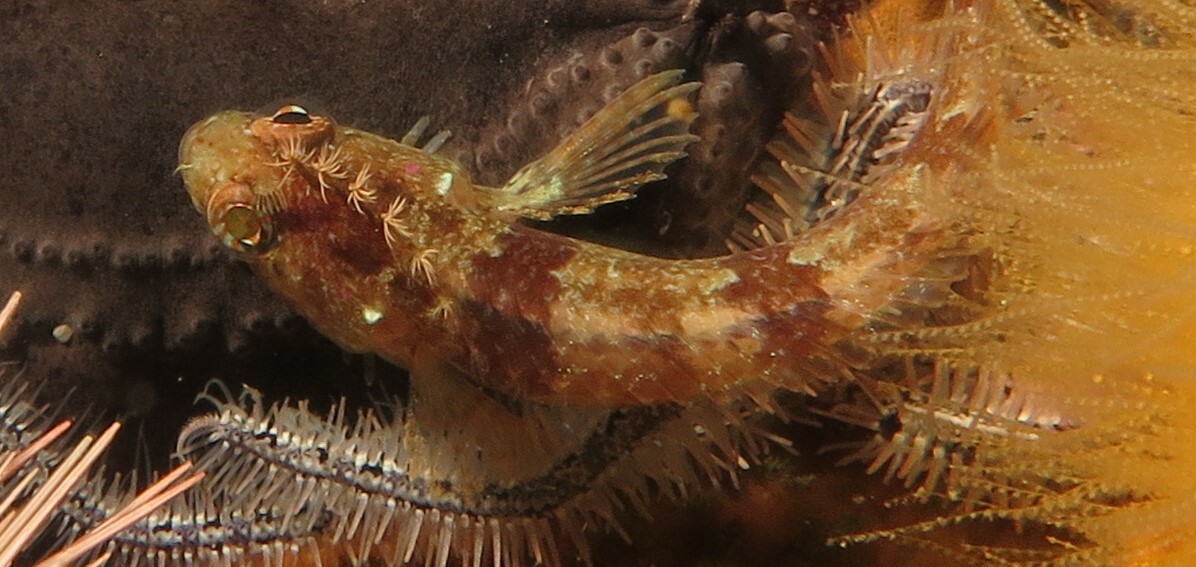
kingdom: Animalia
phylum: Chordata
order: Perciformes
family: Clinidae
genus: Clinus
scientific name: Clinus nematopterus
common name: Chinese klipfish
